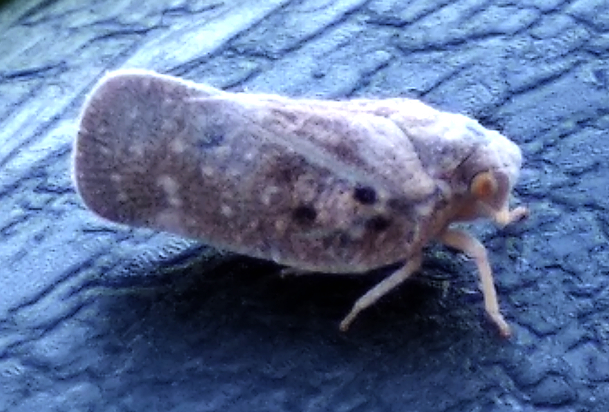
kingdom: Animalia
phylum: Arthropoda
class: Insecta
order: Hemiptera
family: Flatidae
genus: Metcalfa
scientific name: Metcalfa pruinosa
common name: Citrus flatid planthopper
